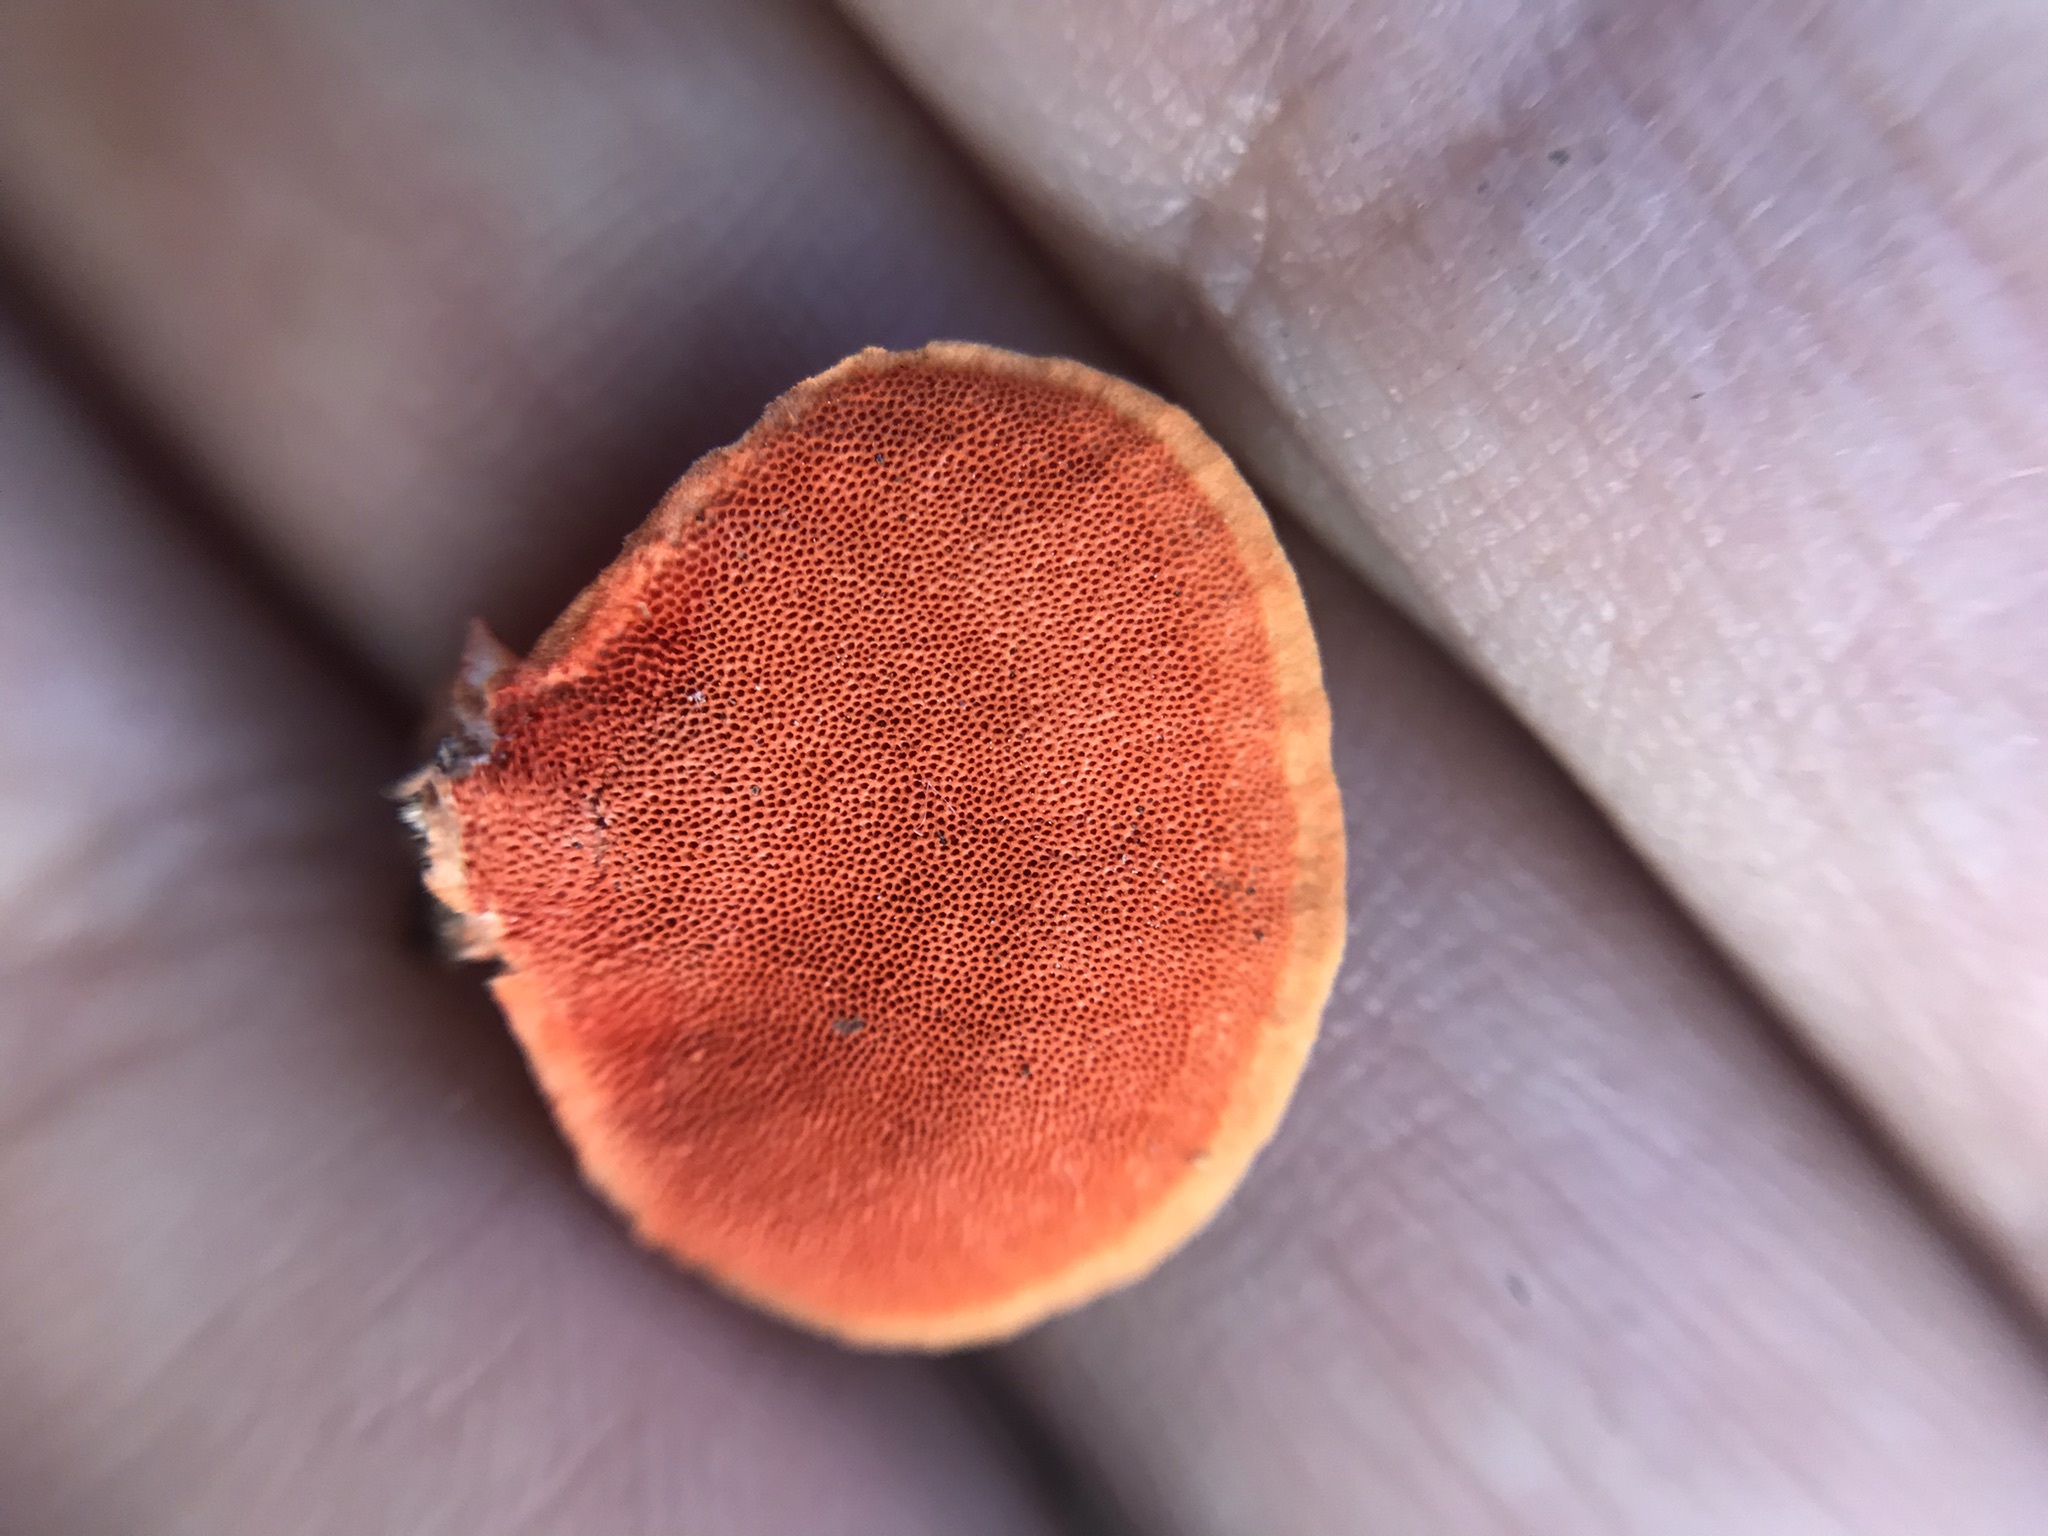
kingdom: Fungi
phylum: Basidiomycota
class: Agaricomycetes
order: Polyporales
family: Polyporaceae
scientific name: Polyporaceae
